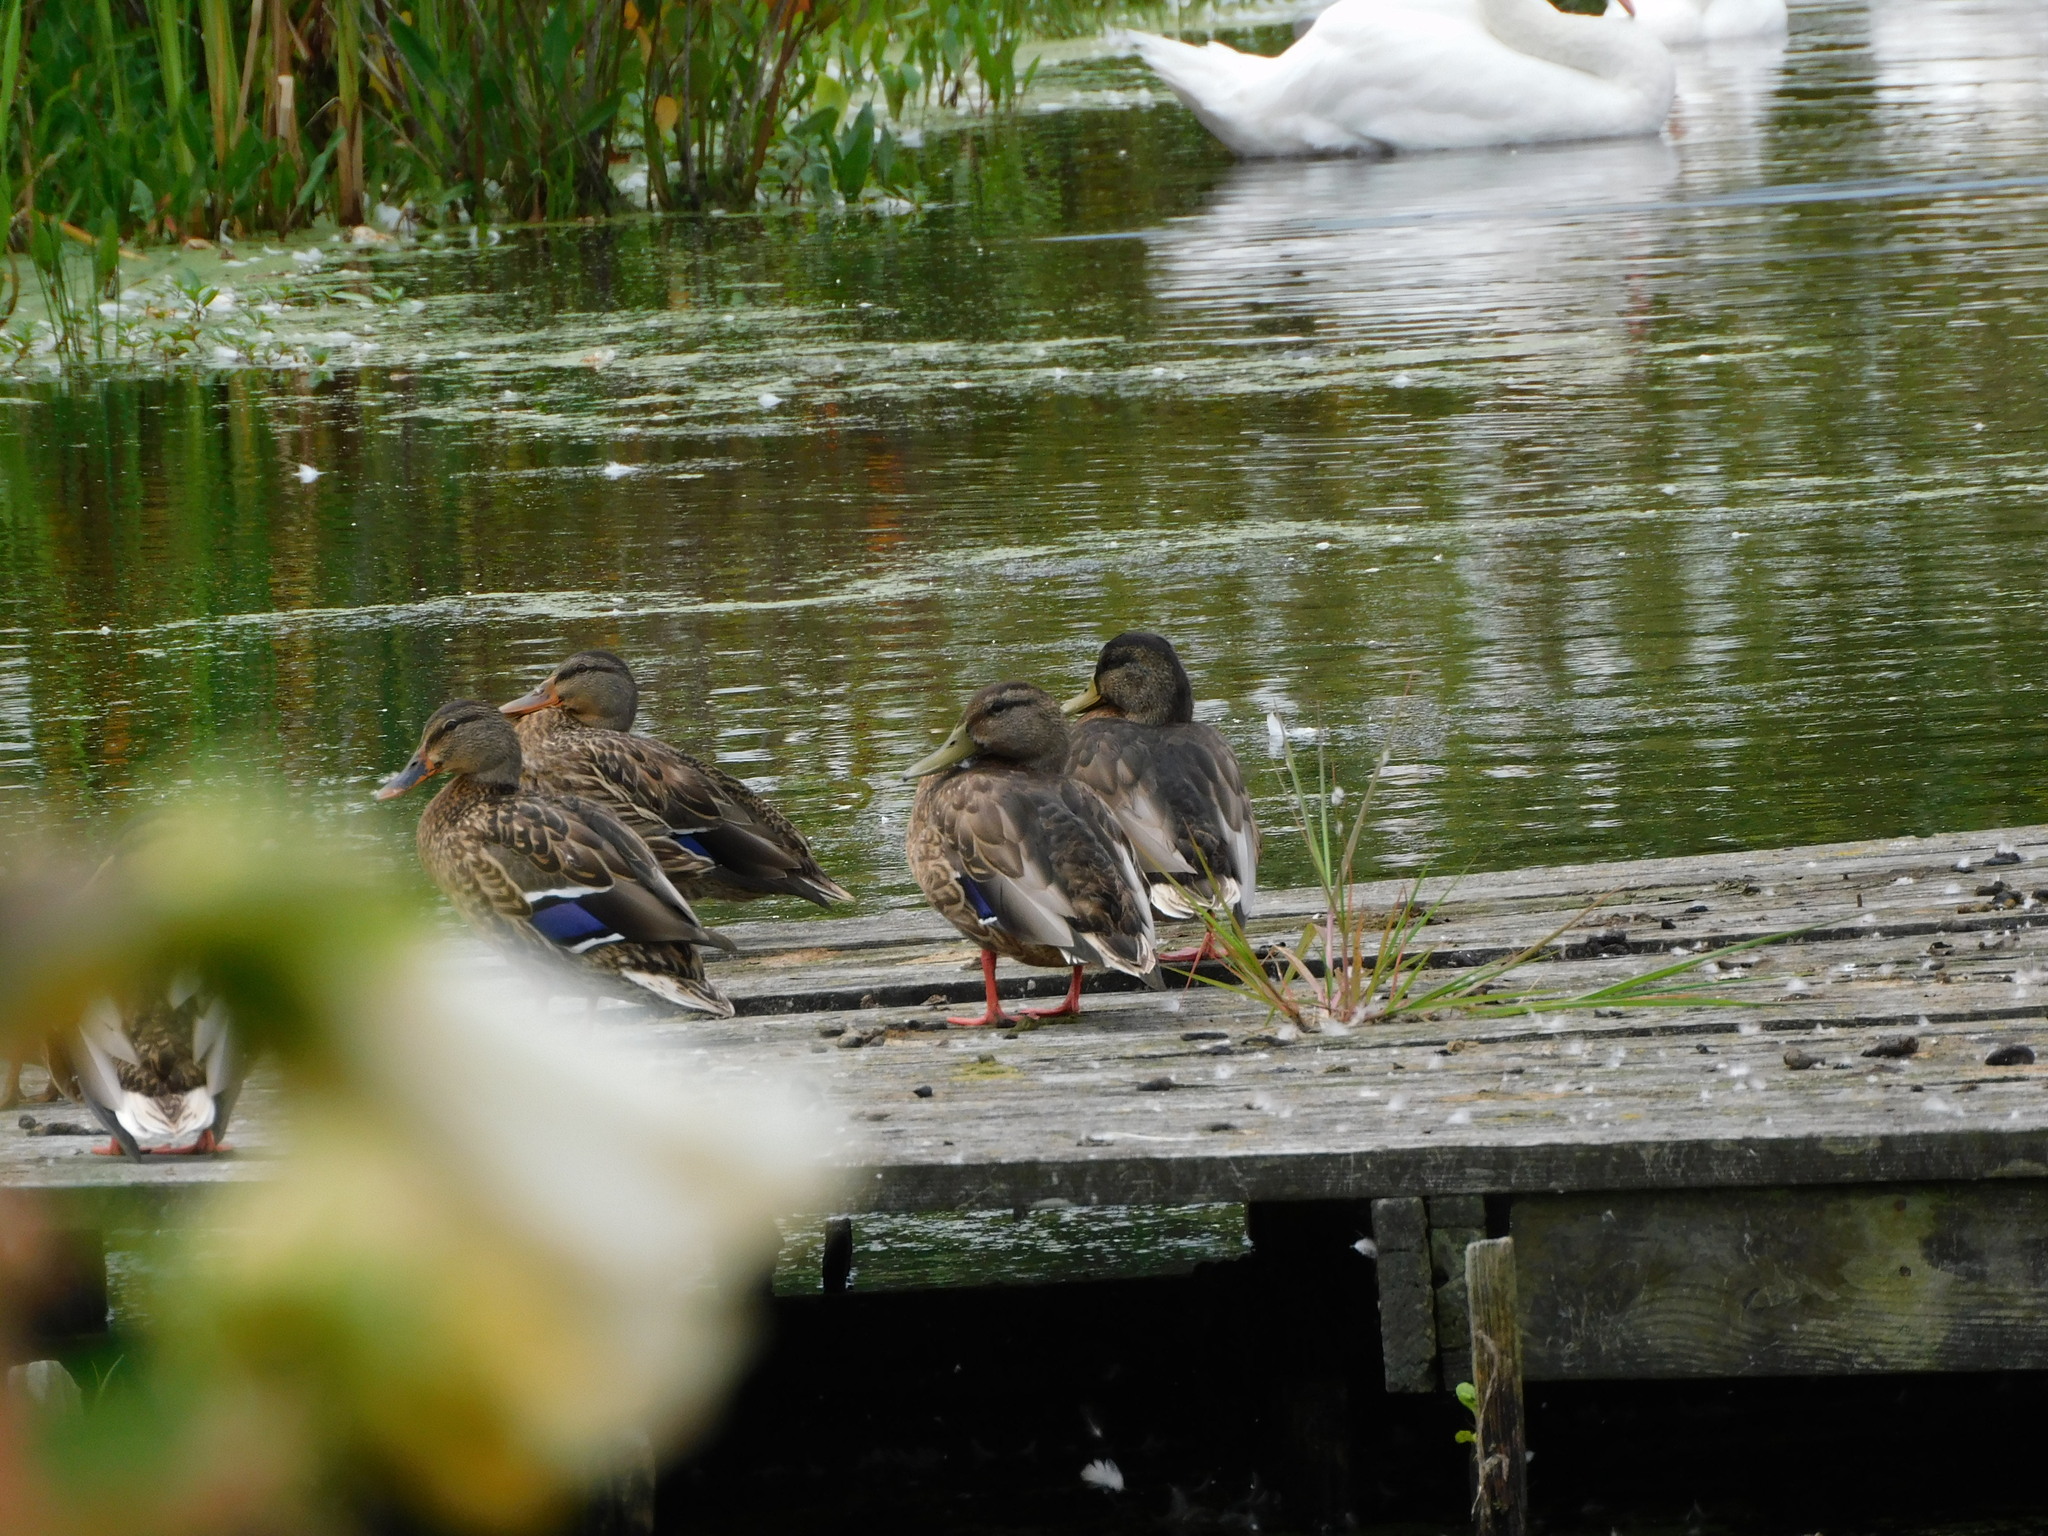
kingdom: Animalia
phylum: Chordata
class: Aves
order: Anseriformes
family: Anatidae
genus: Anas
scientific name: Anas platyrhynchos
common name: Mallard
